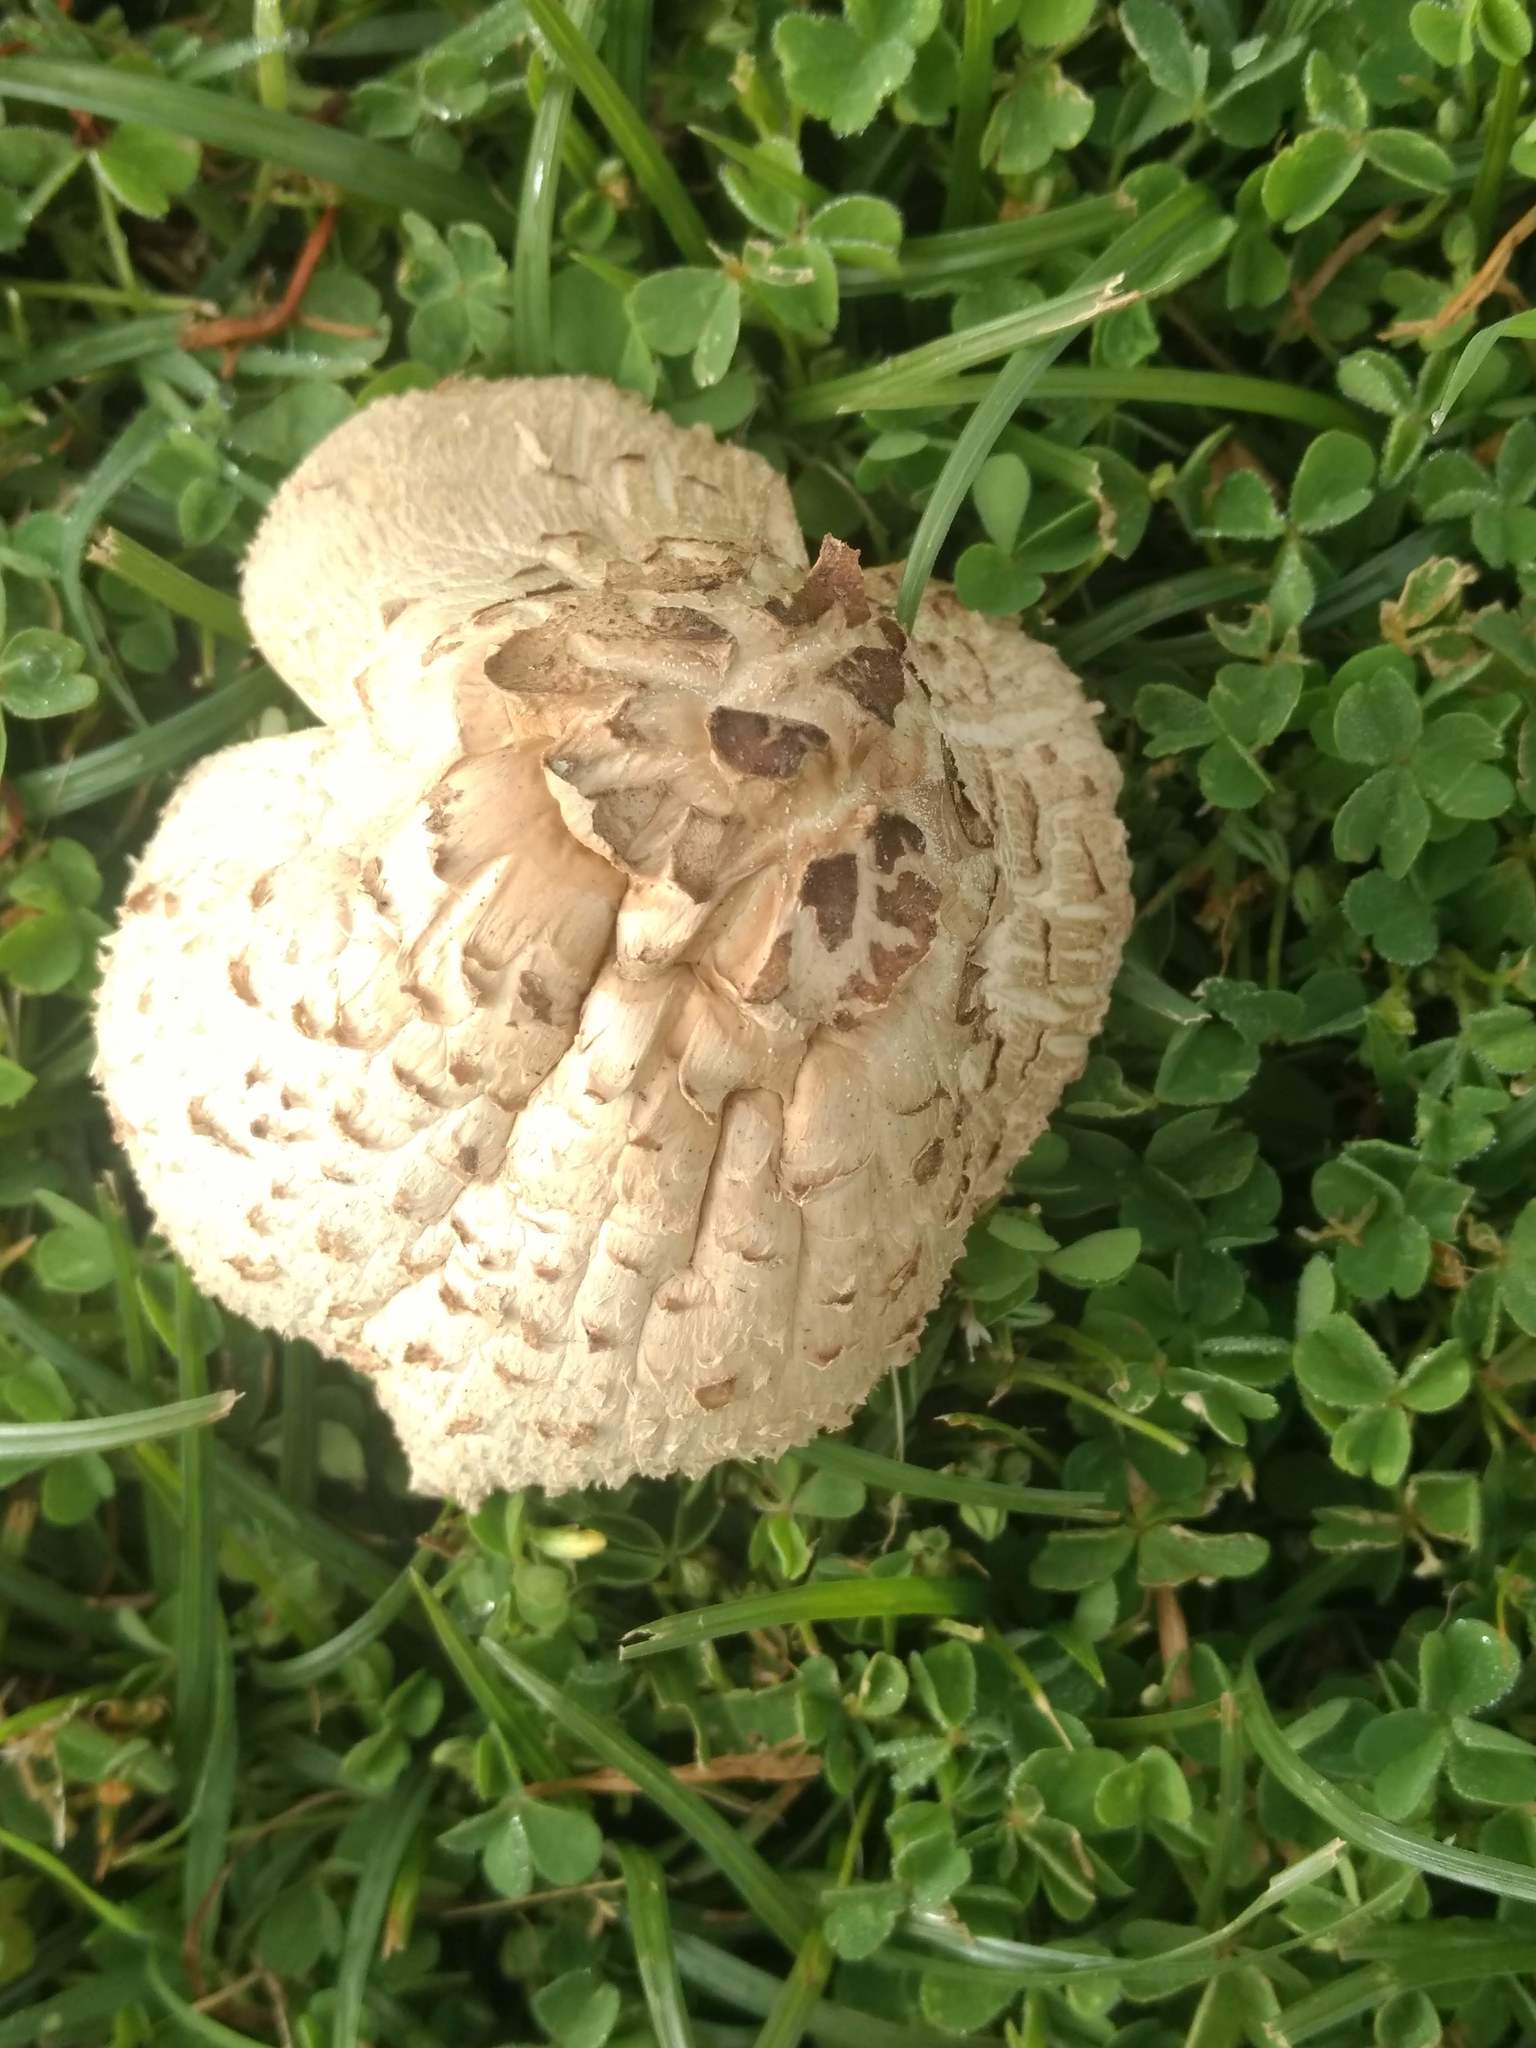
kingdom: Fungi
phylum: Basidiomycota
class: Agaricomycetes
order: Agaricales
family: Agaricaceae
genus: Chlorophyllum
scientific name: Chlorophyllum molybdites
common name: False parasol
